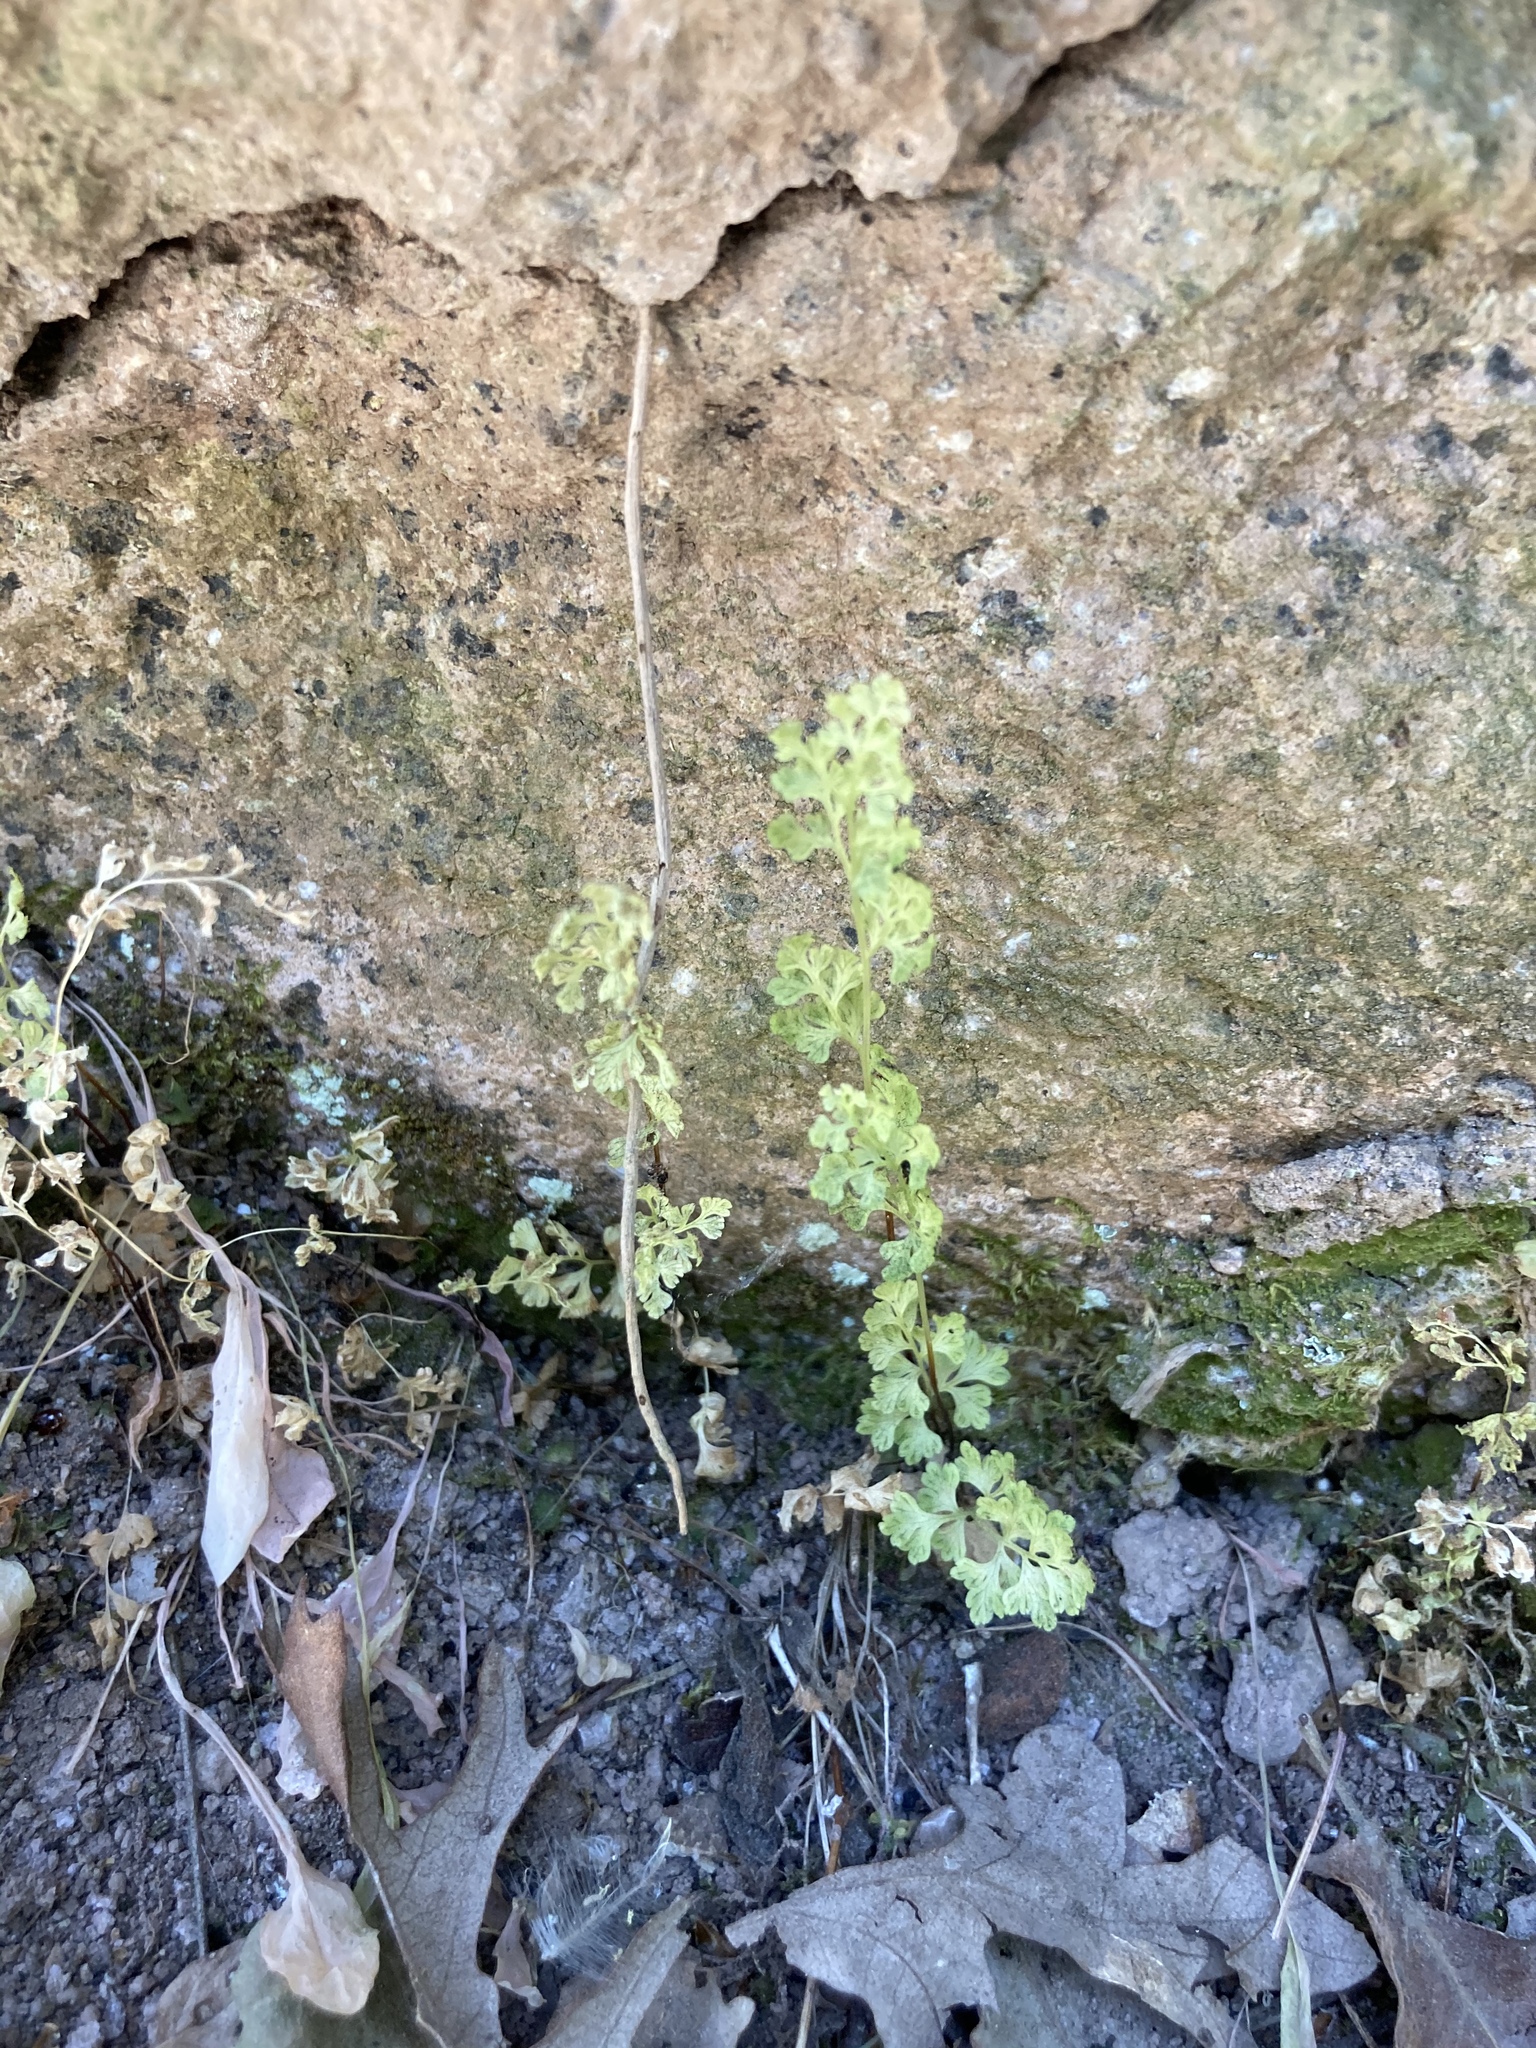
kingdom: Plantae
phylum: Tracheophyta
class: Polypodiopsida
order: Polypodiales
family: Pteridaceae
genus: Anogramma
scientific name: Anogramma leptophylla
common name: Jersey fern
